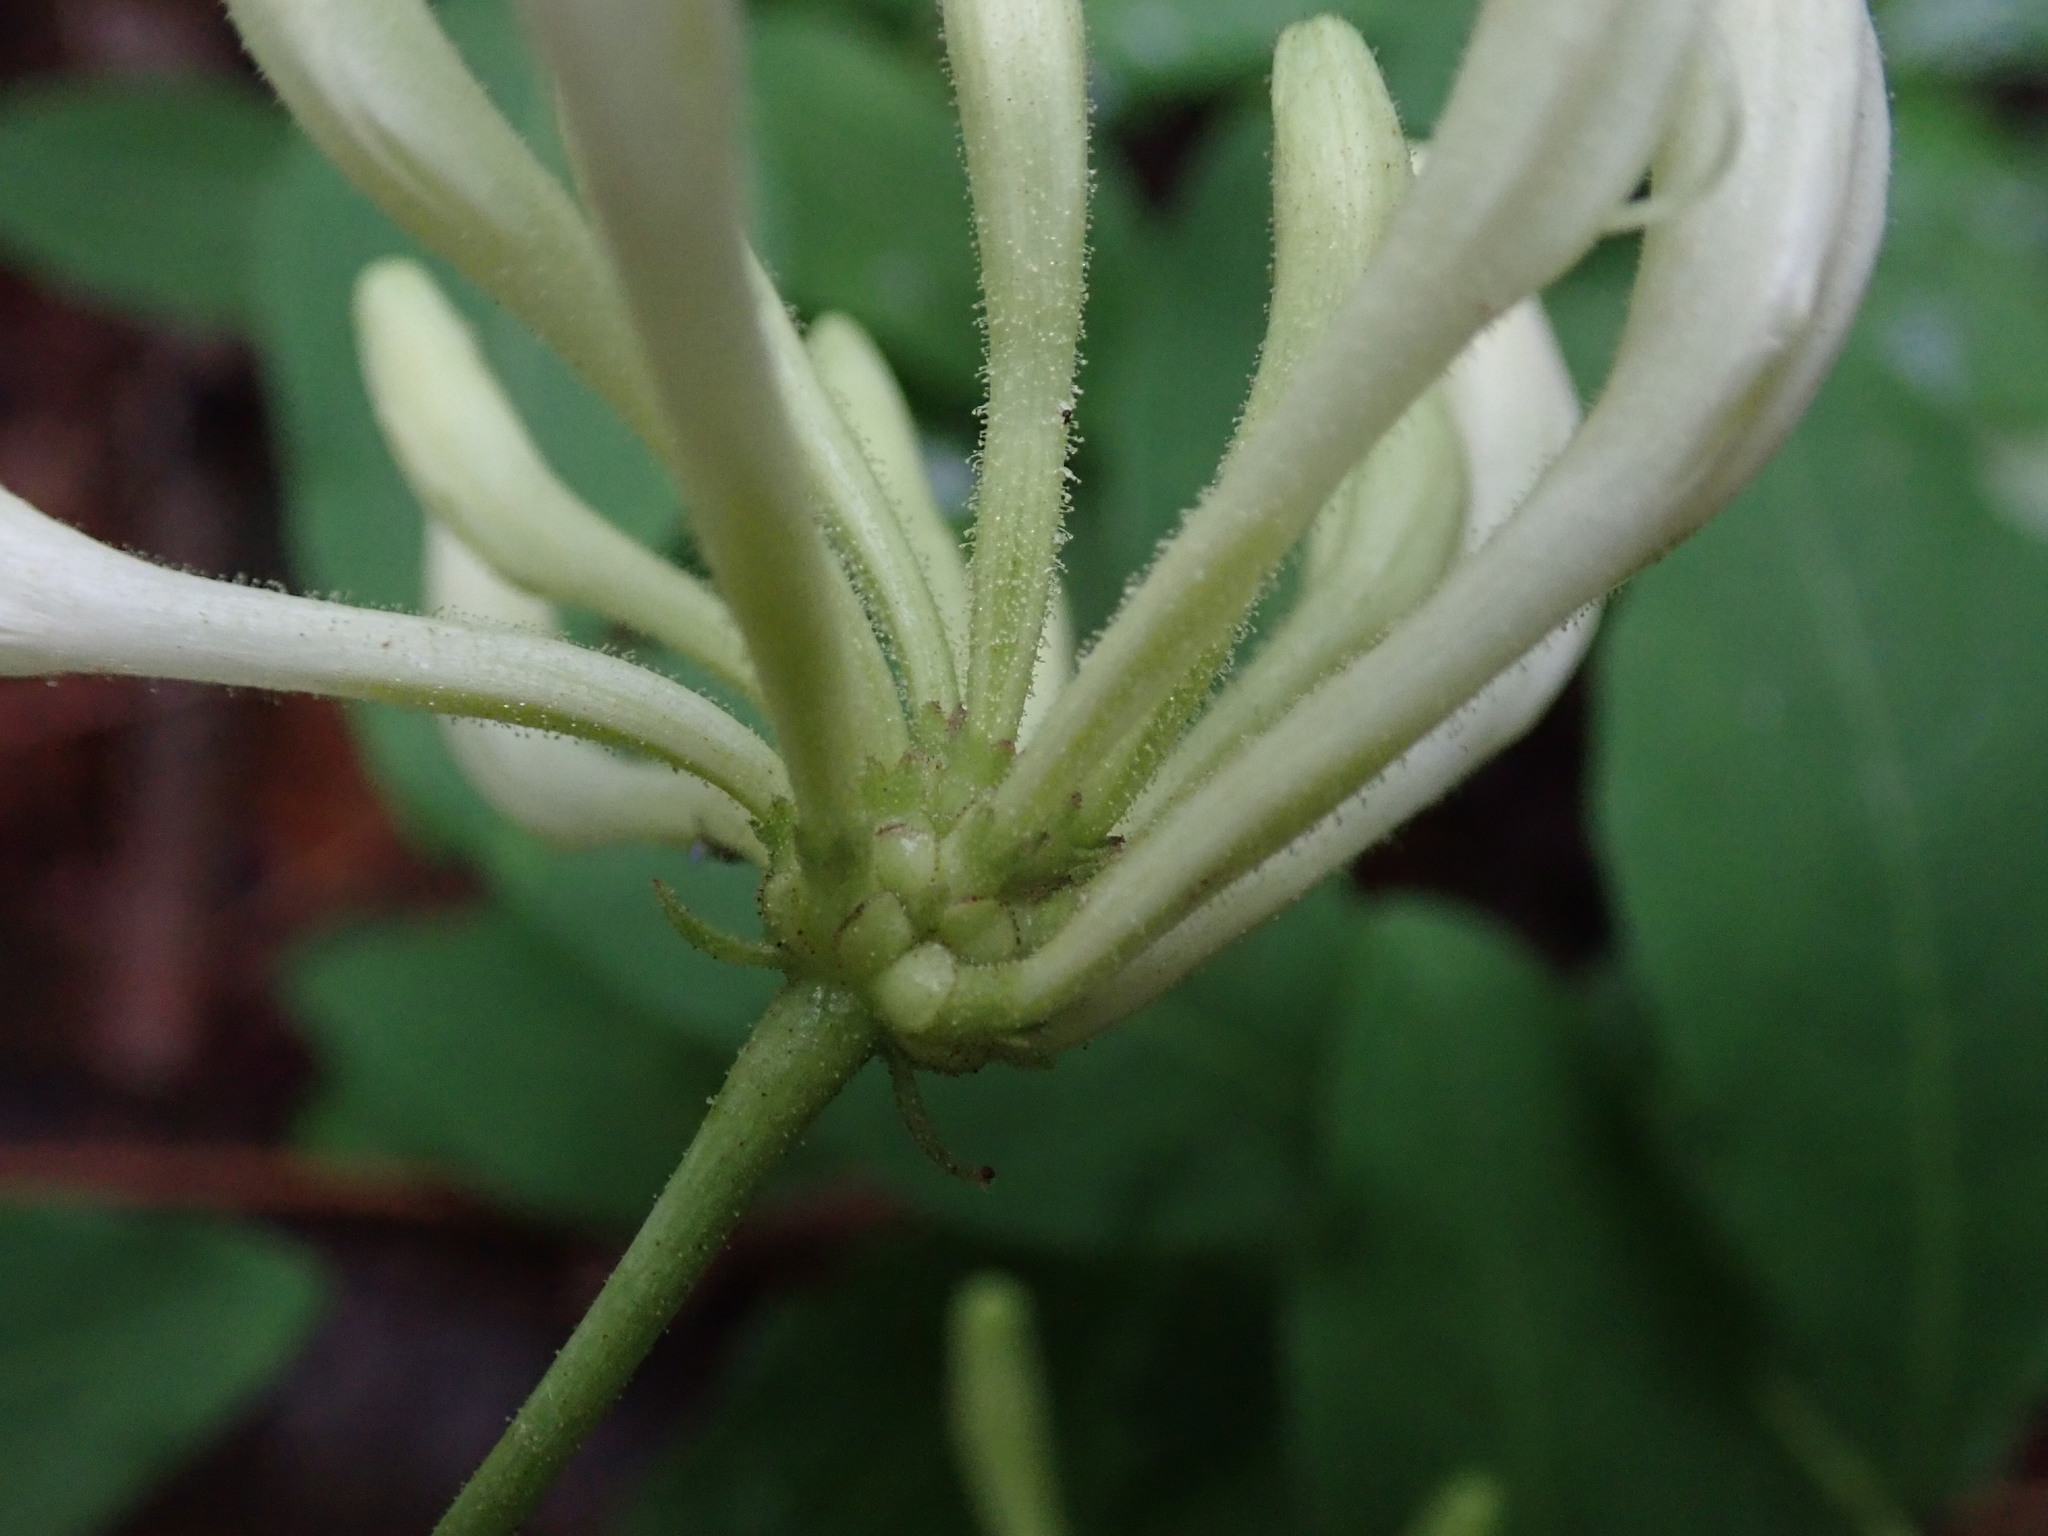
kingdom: Plantae
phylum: Tracheophyta
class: Magnoliopsida
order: Dipsacales
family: Caprifoliaceae
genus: Lonicera
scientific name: Lonicera periclymenum
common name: European honeysuckle
